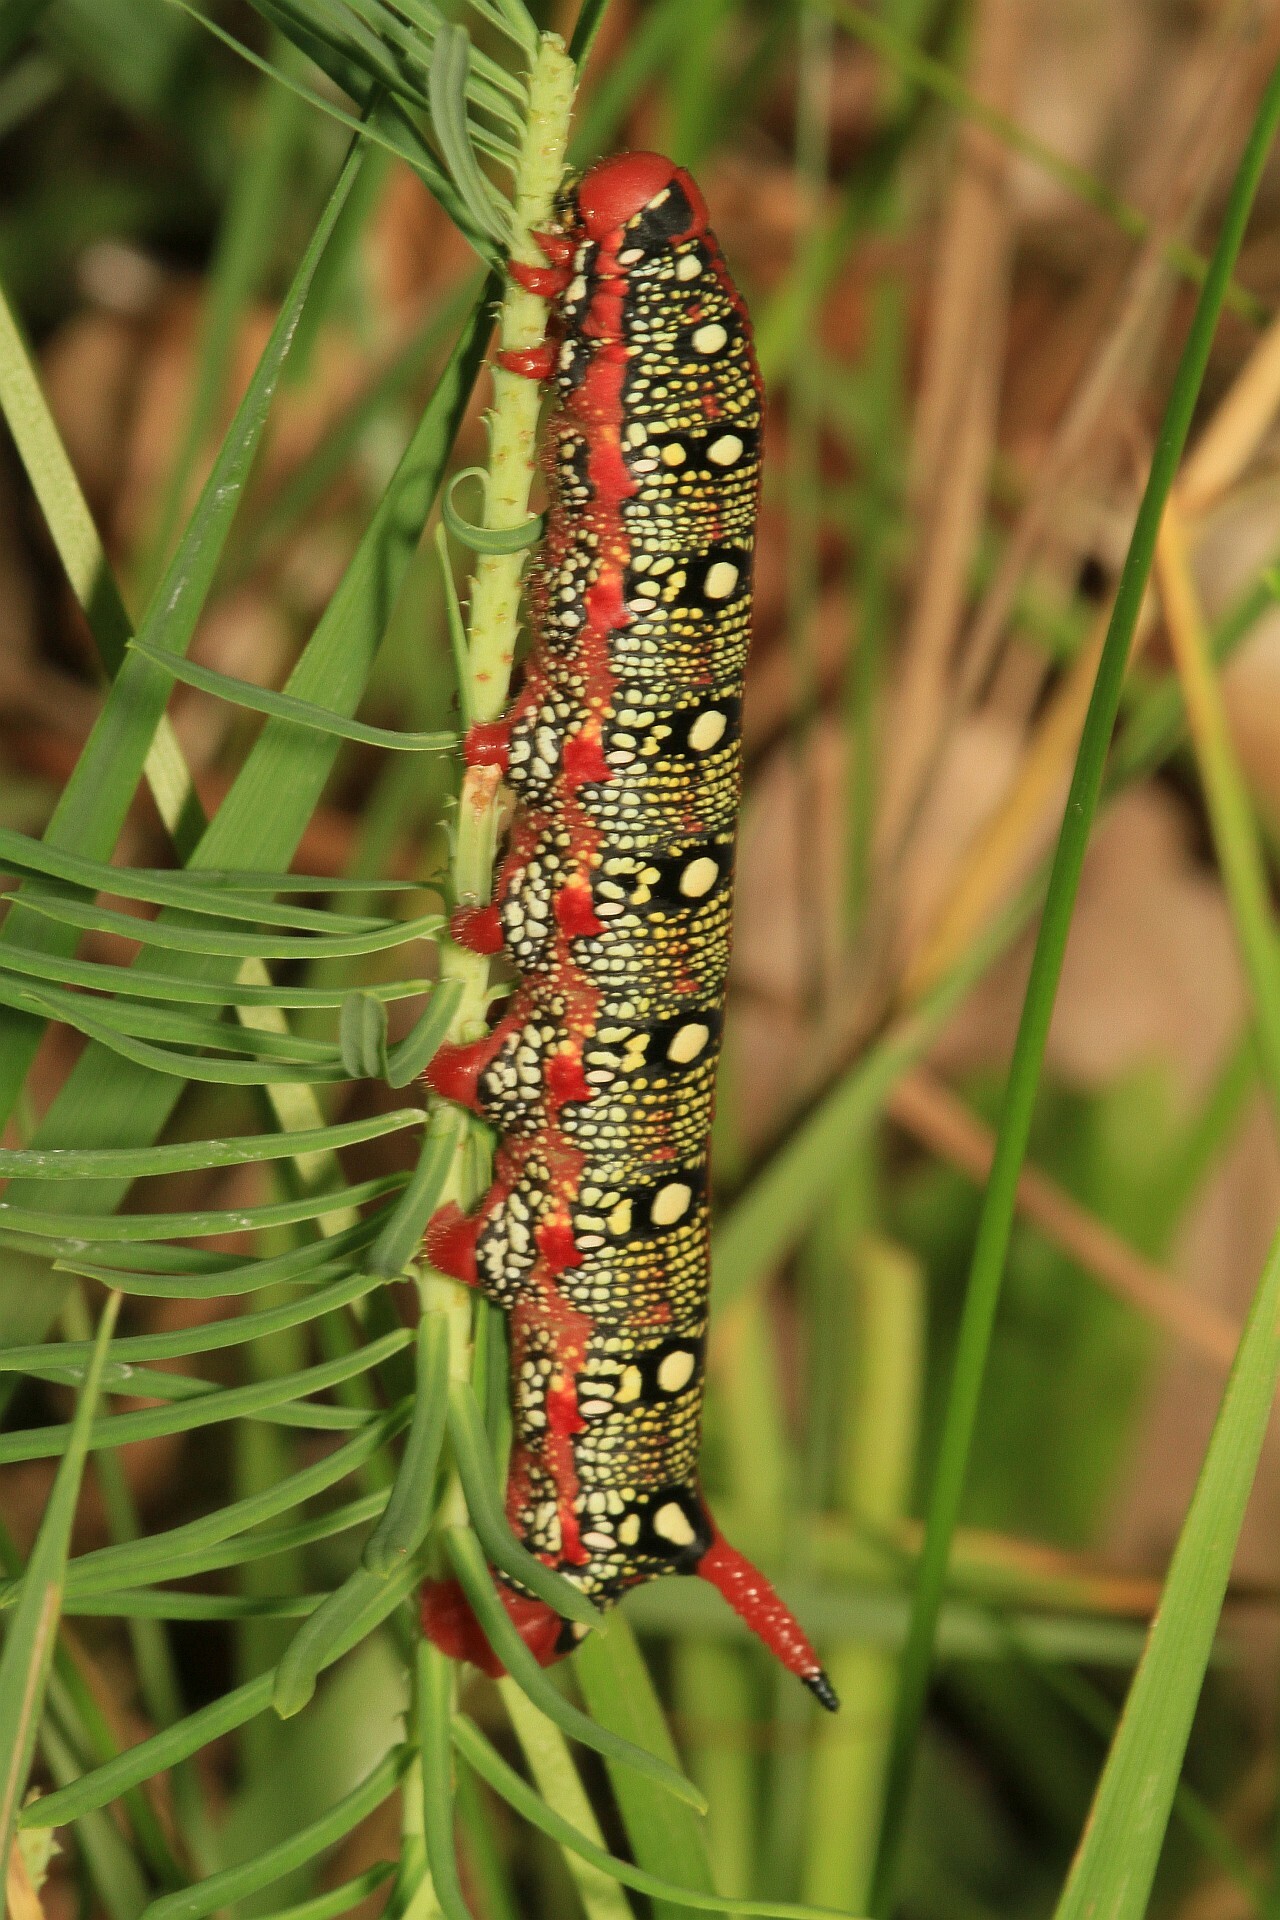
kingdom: Animalia
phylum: Arthropoda
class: Insecta
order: Lepidoptera
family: Sphingidae
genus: Hyles
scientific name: Hyles euphorbiae
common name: Spurge hawk-moth
